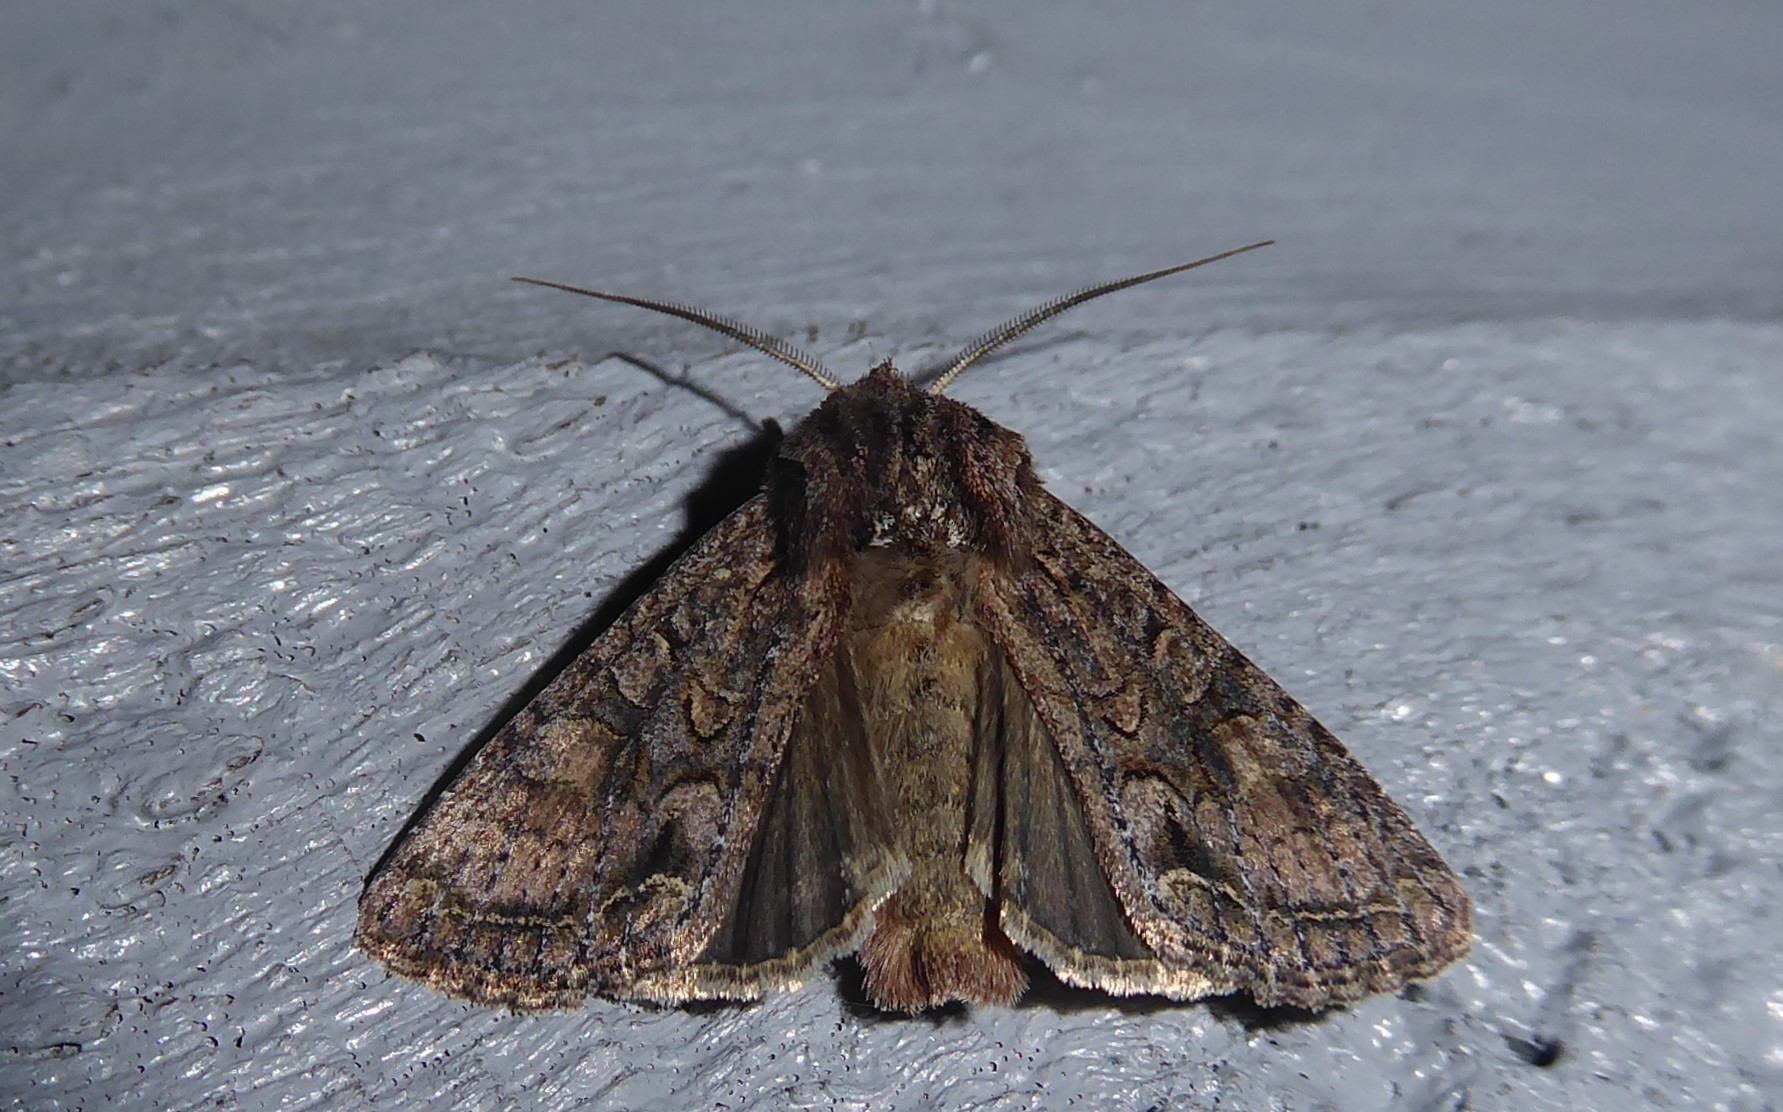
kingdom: Animalia
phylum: Arthropoda
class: Insecta
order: Lepidoptera
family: Noctuidae
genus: Ichneutica
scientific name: Ichneutica mutans
